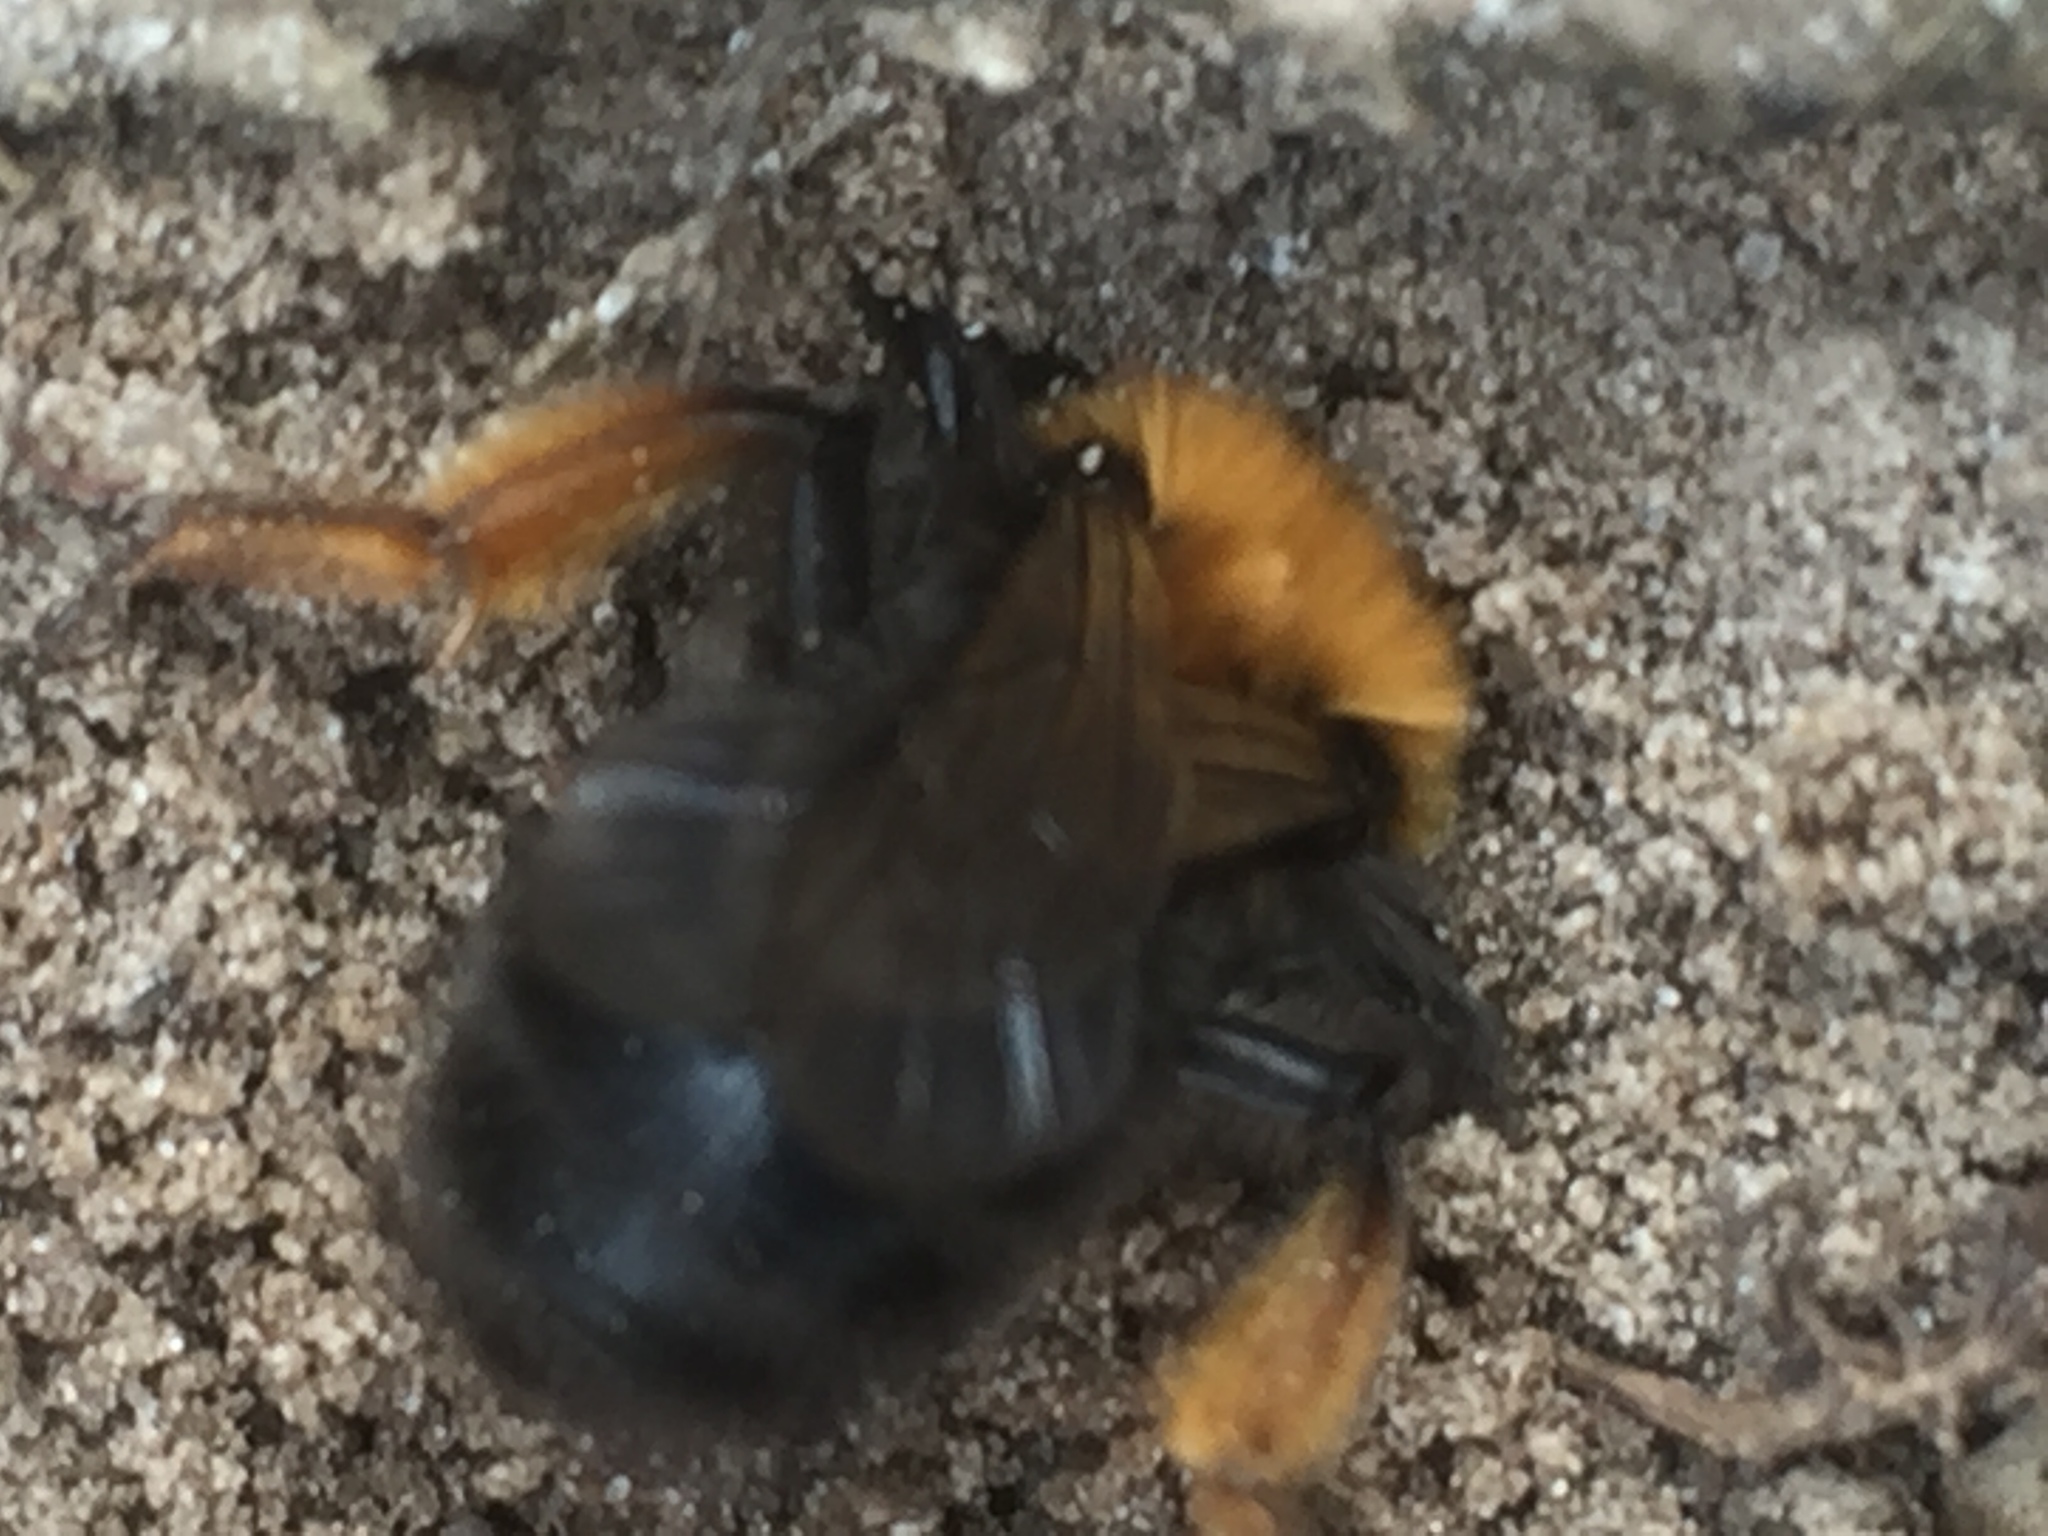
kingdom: Animalia
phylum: Arthropoda
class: Insecta
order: Hymenoptera
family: Andrenidae
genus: Andrena
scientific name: Andrena clarkella
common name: Clarke's mining bee
